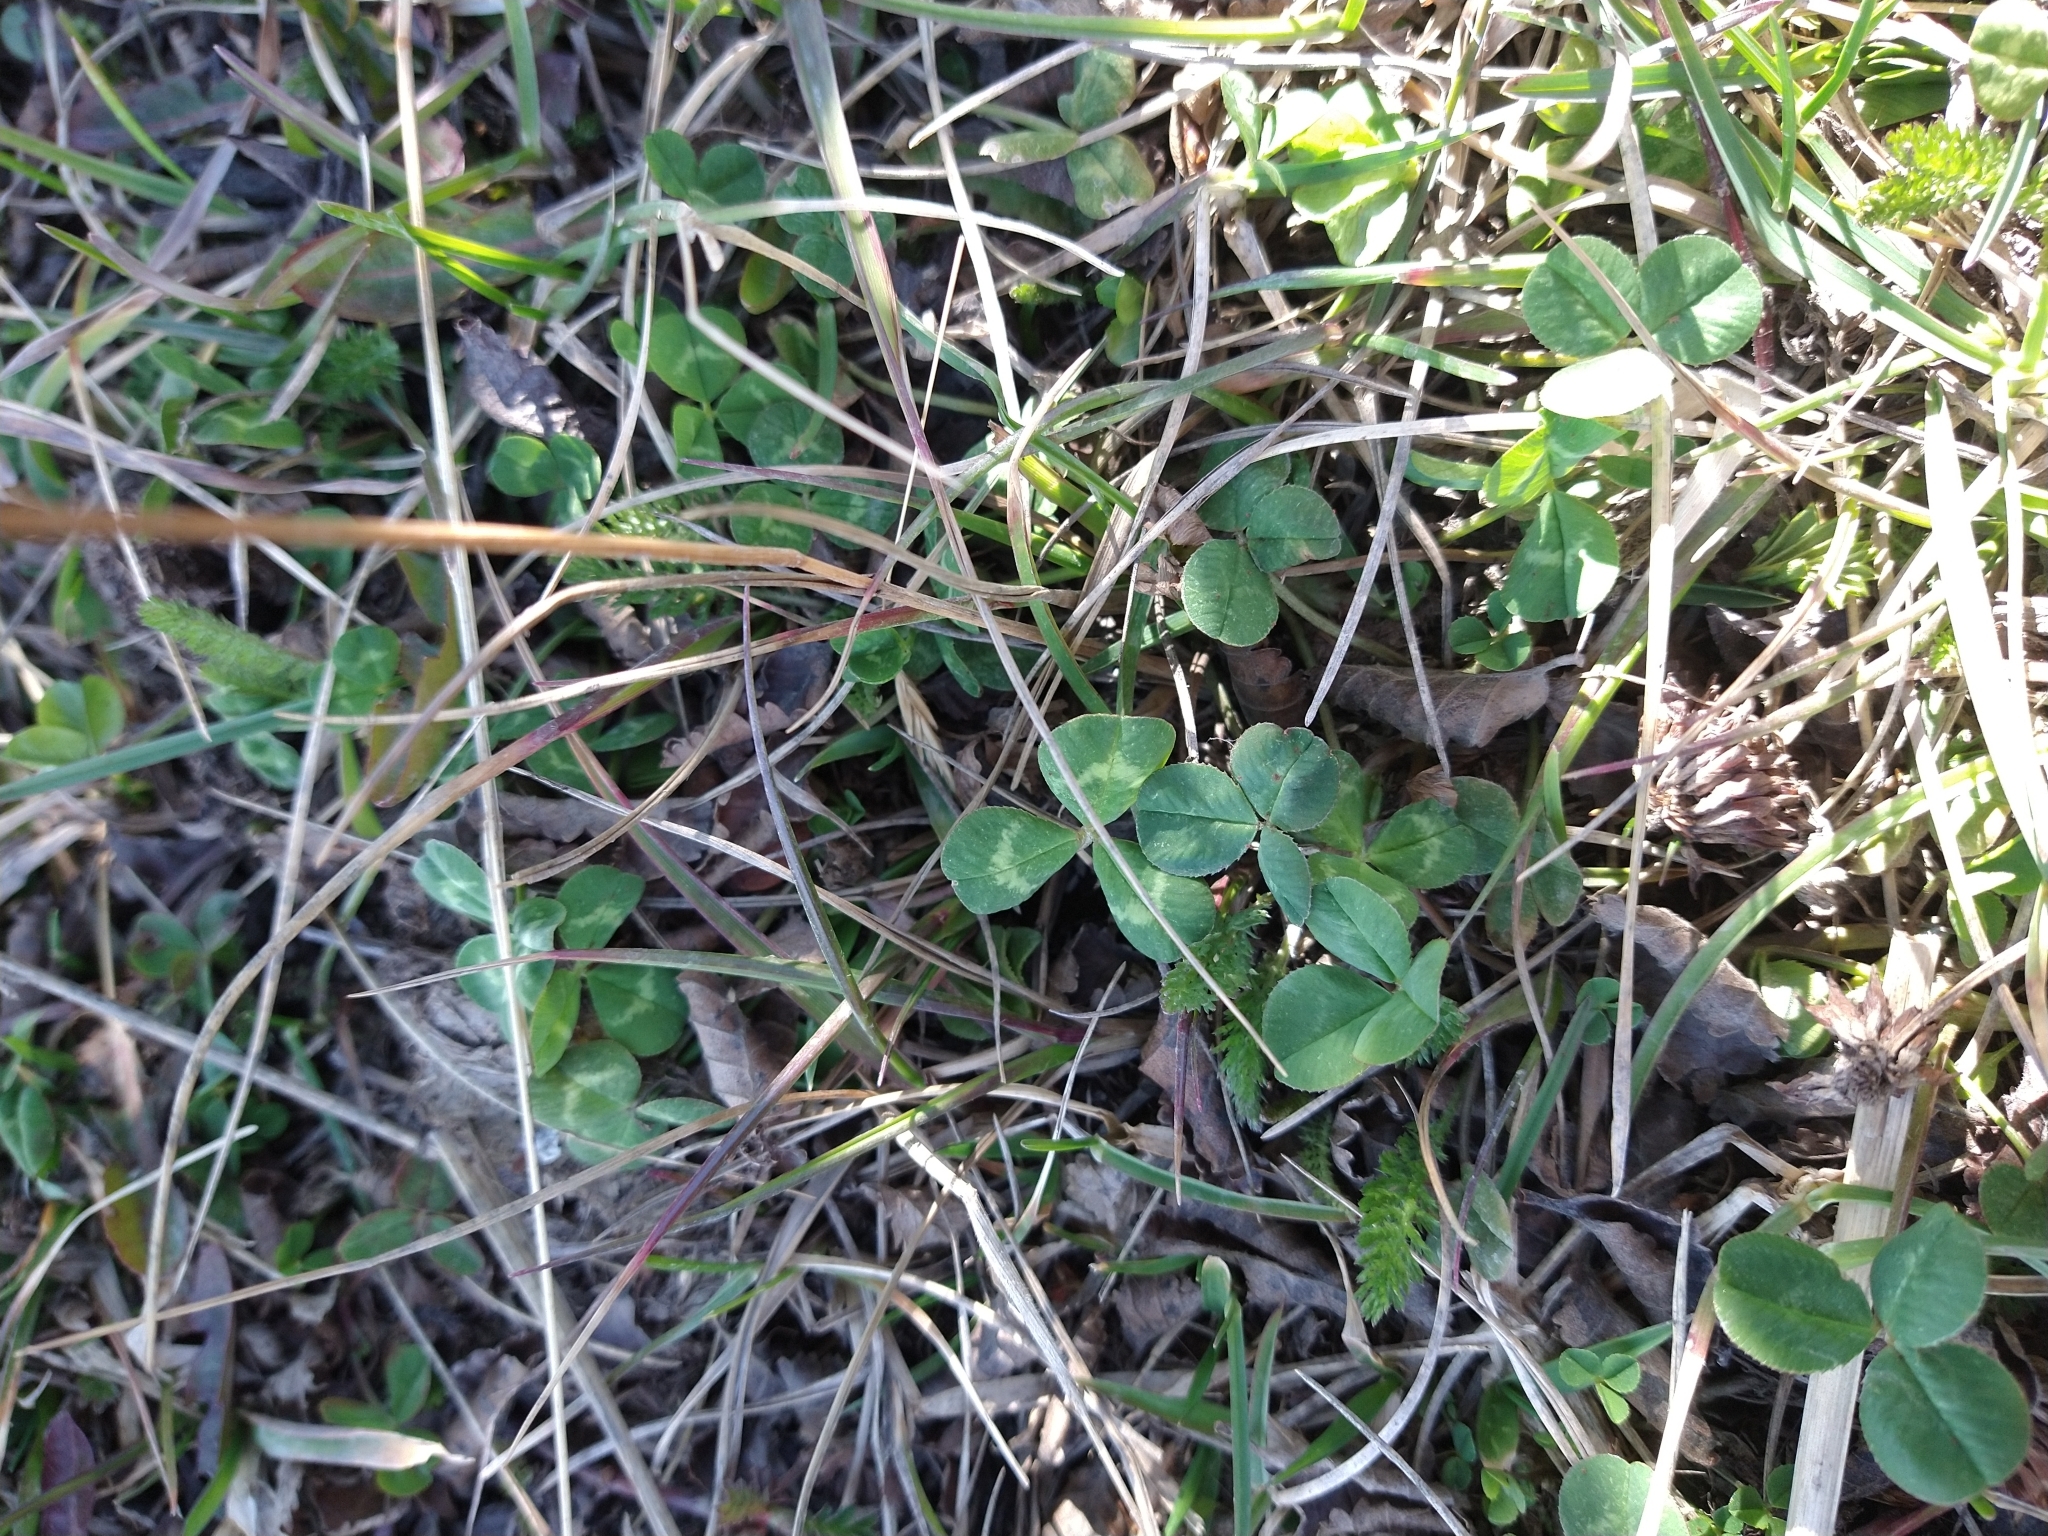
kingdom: Plantae
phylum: Tracheophyta
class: Magnoliopsida
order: Fabales
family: Fabaceae
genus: Trifolium
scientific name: Trifolium repens
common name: White clover
